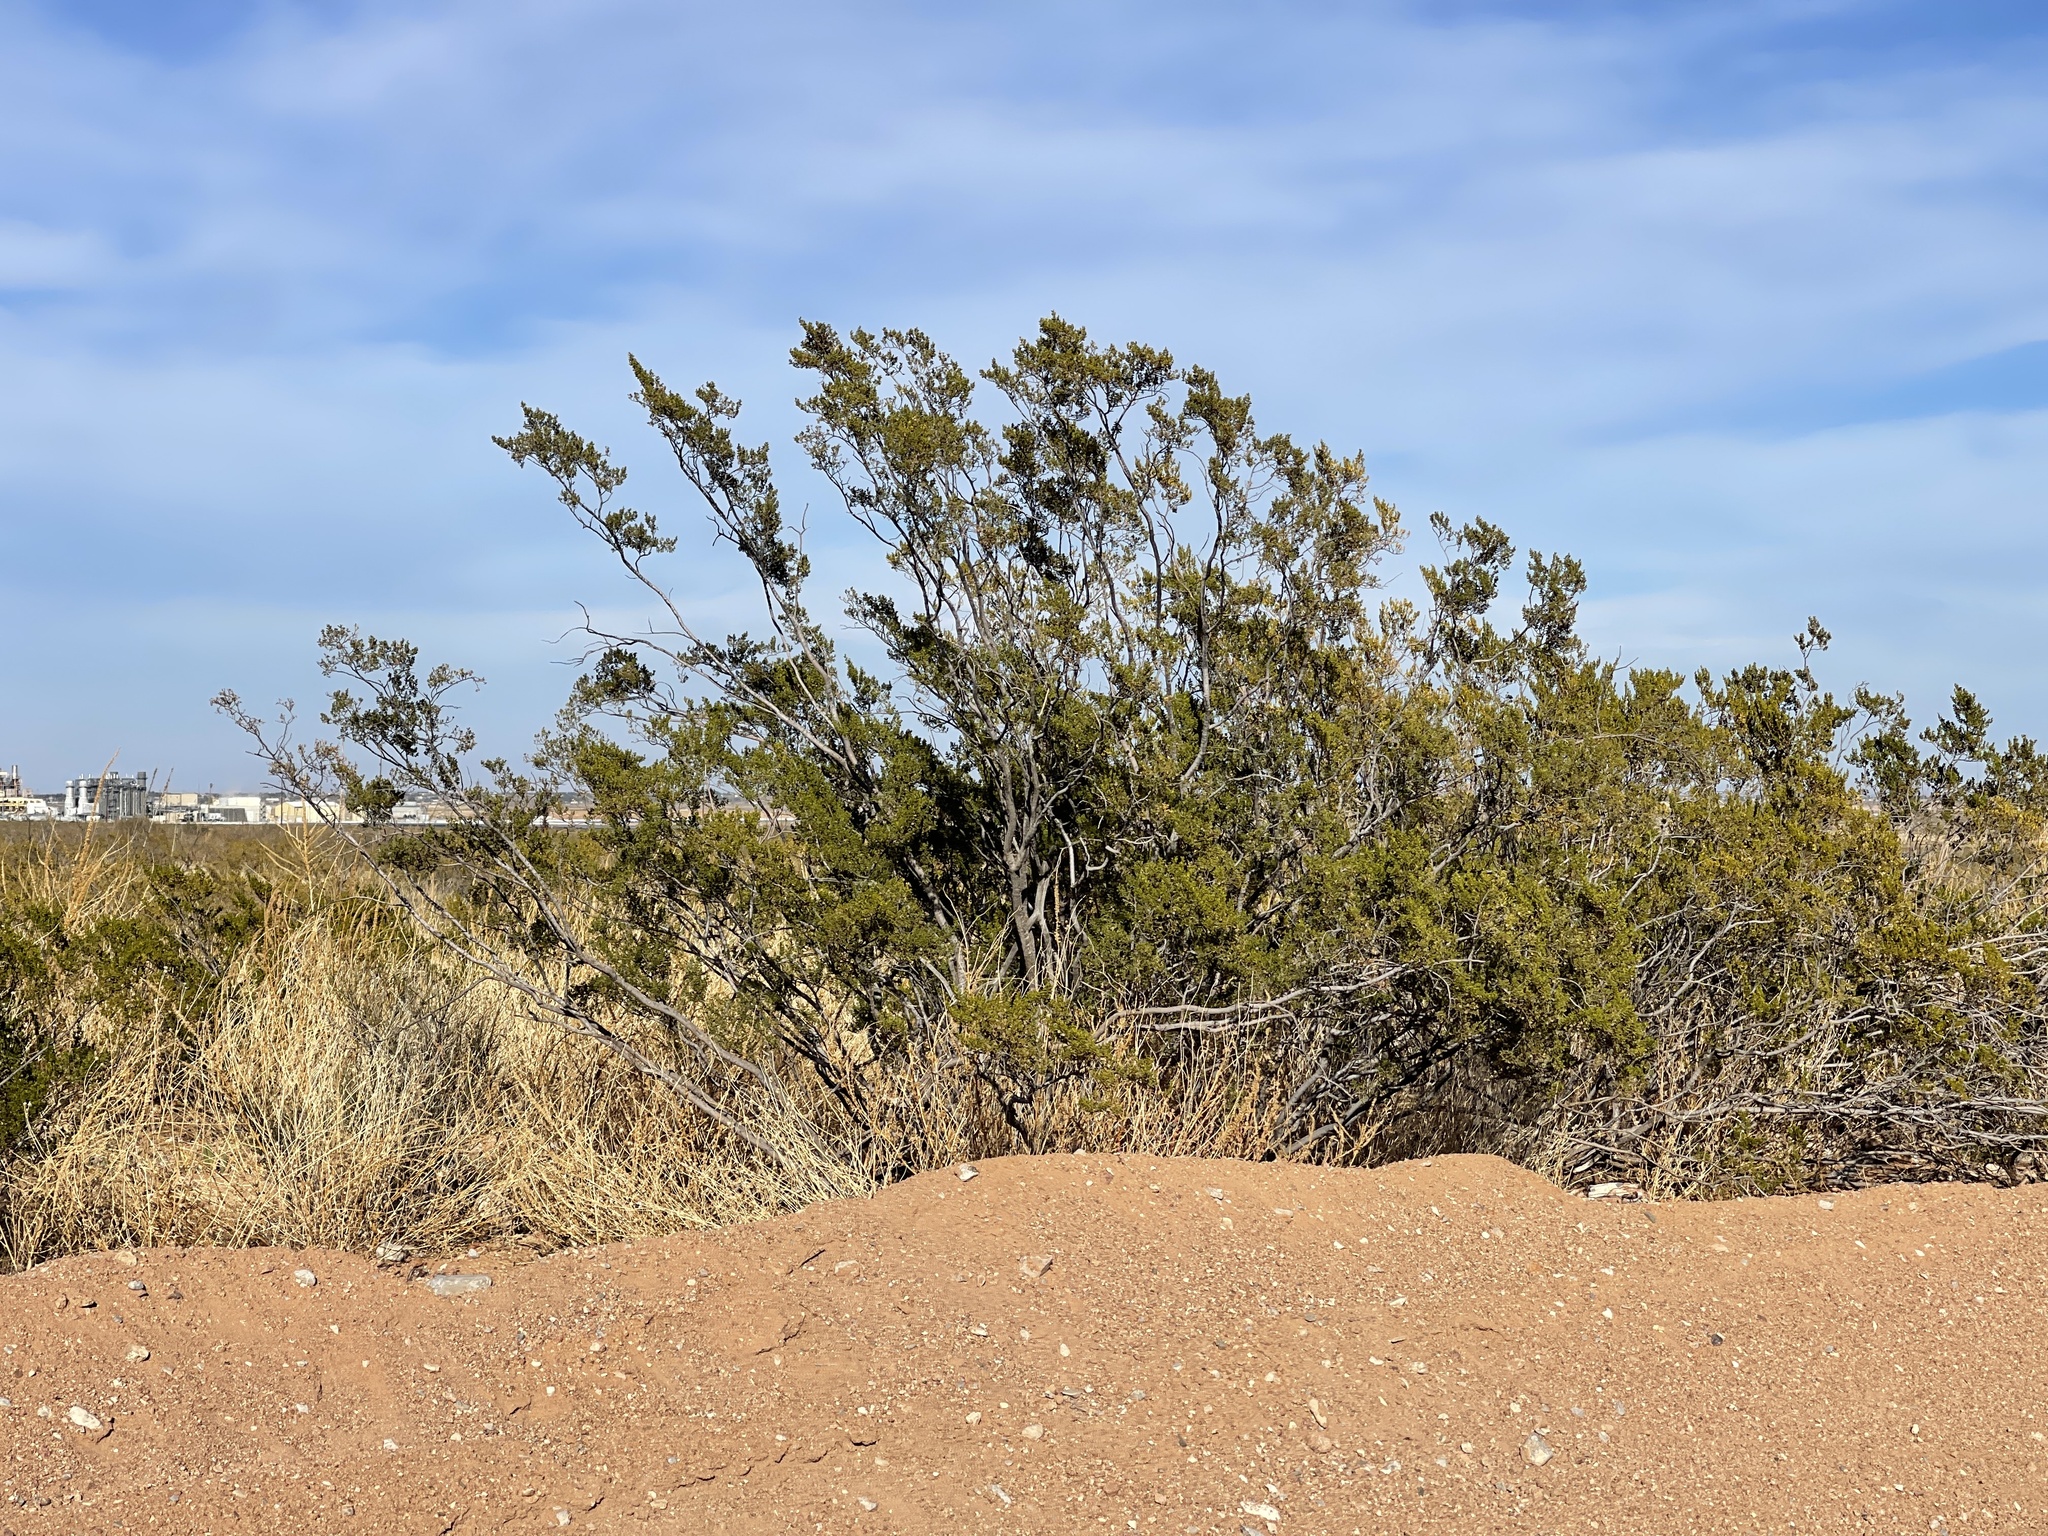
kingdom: Plantae
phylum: Tracheophyta
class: Magnoliopsida
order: Zygophyllales
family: Zygophyllaceae
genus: Larrea
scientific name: Larrea tridentata
